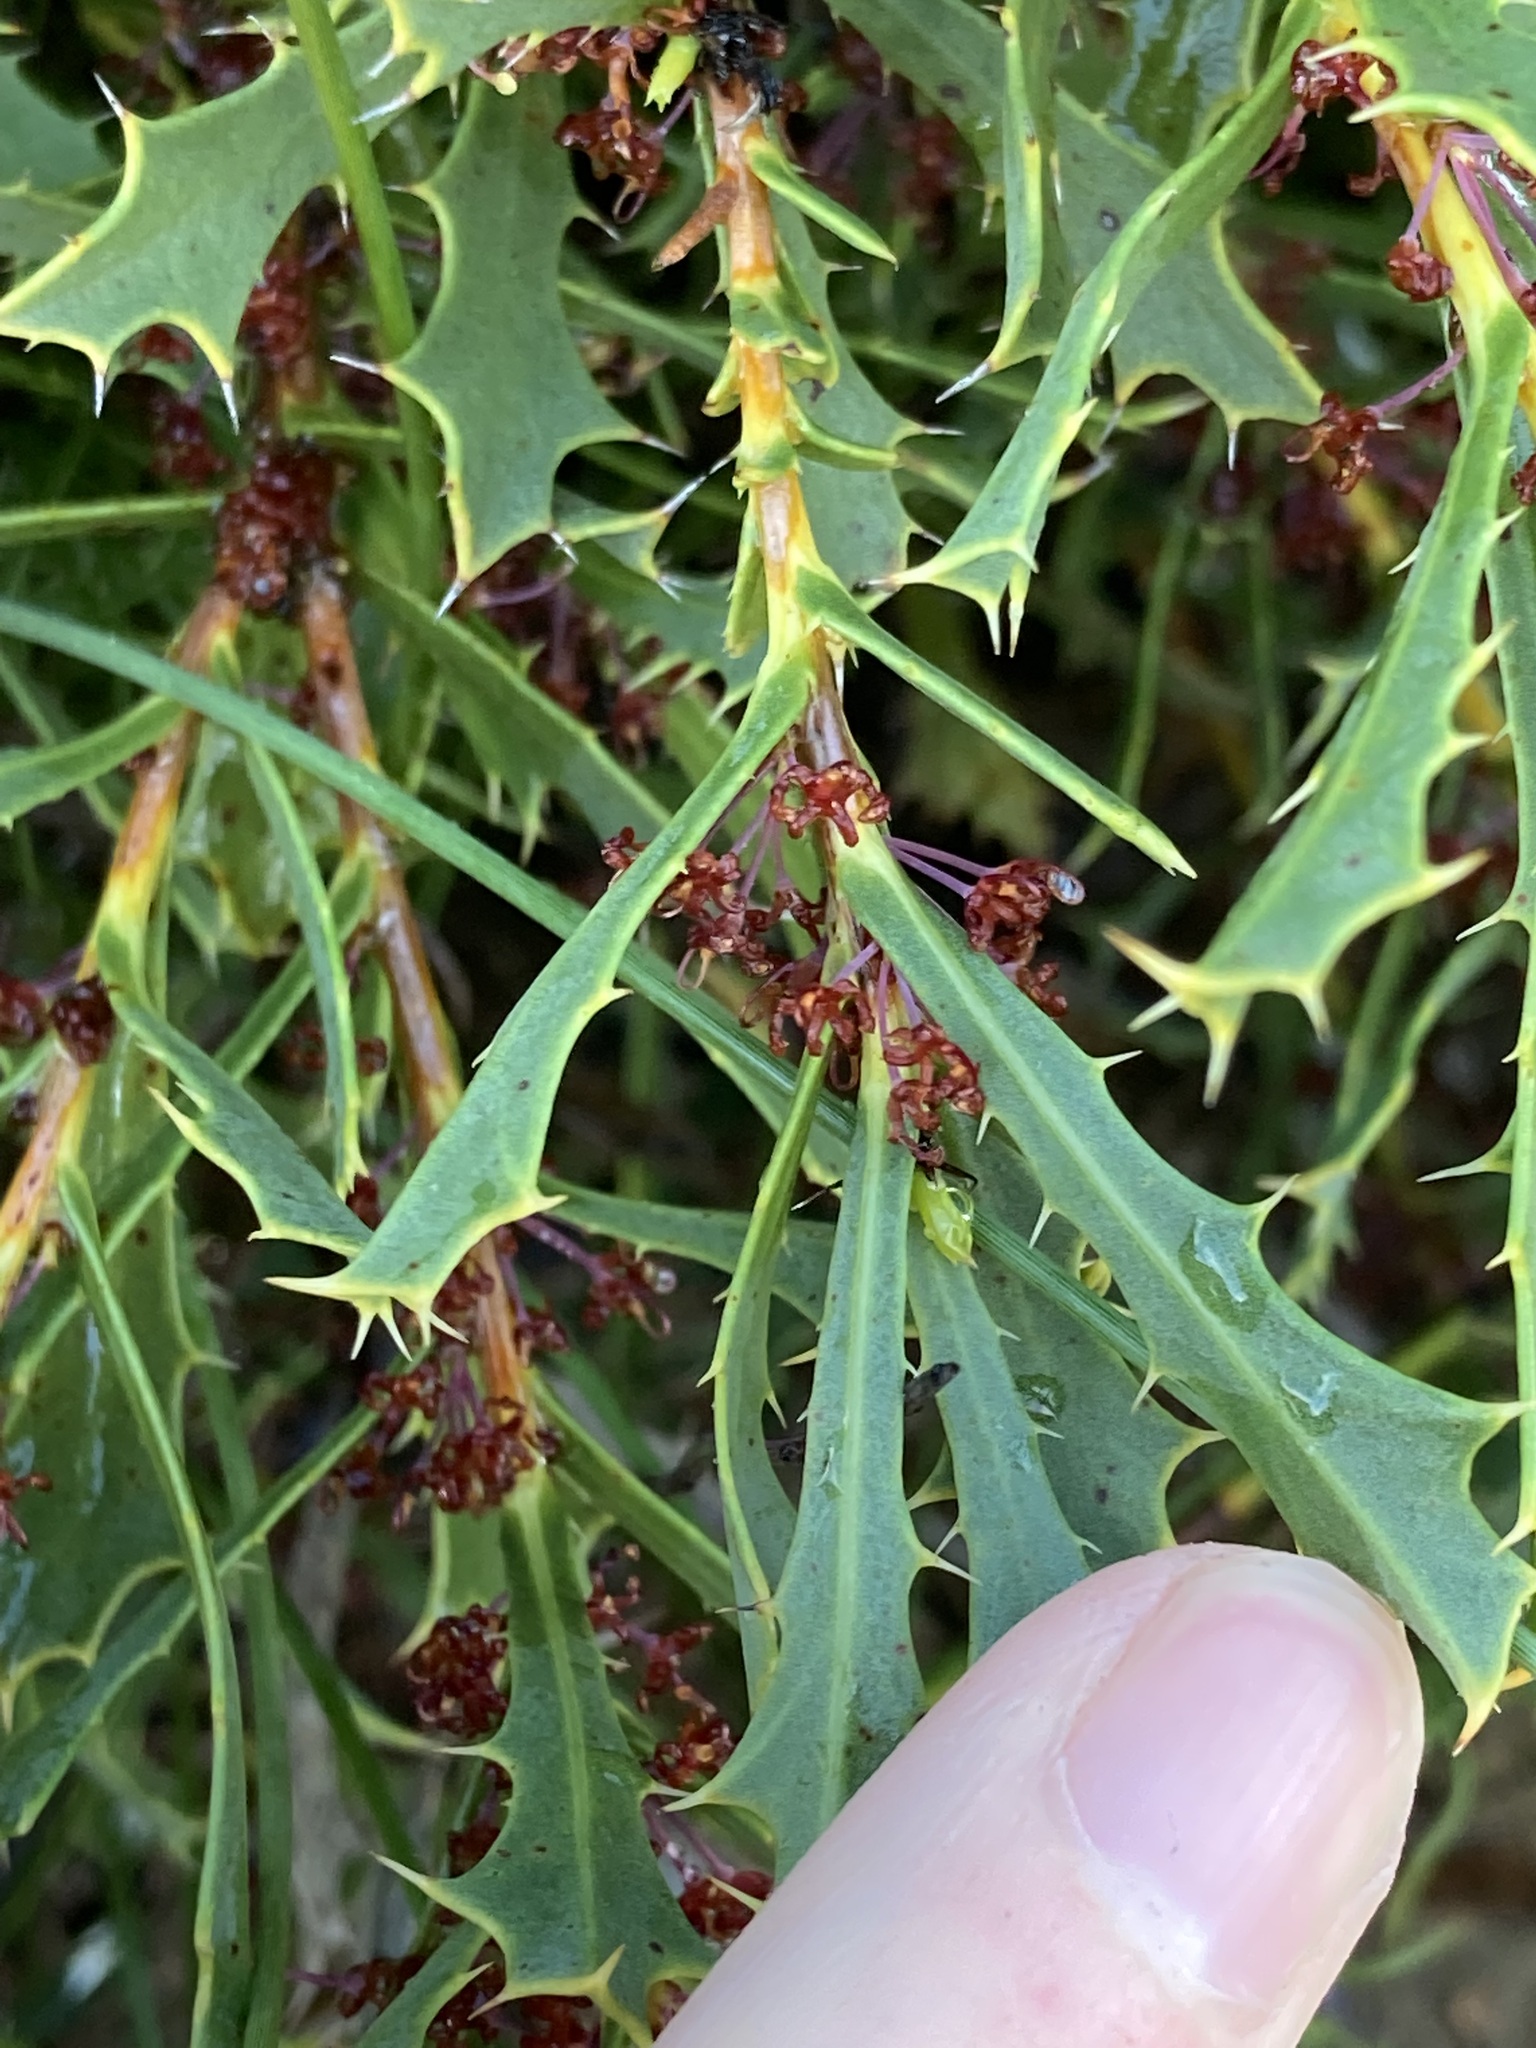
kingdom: Plantae
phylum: Tracheophyta
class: Magnoliopsida
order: Proteales
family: Proteaceae
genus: Hakea
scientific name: Hakea neospathulata
